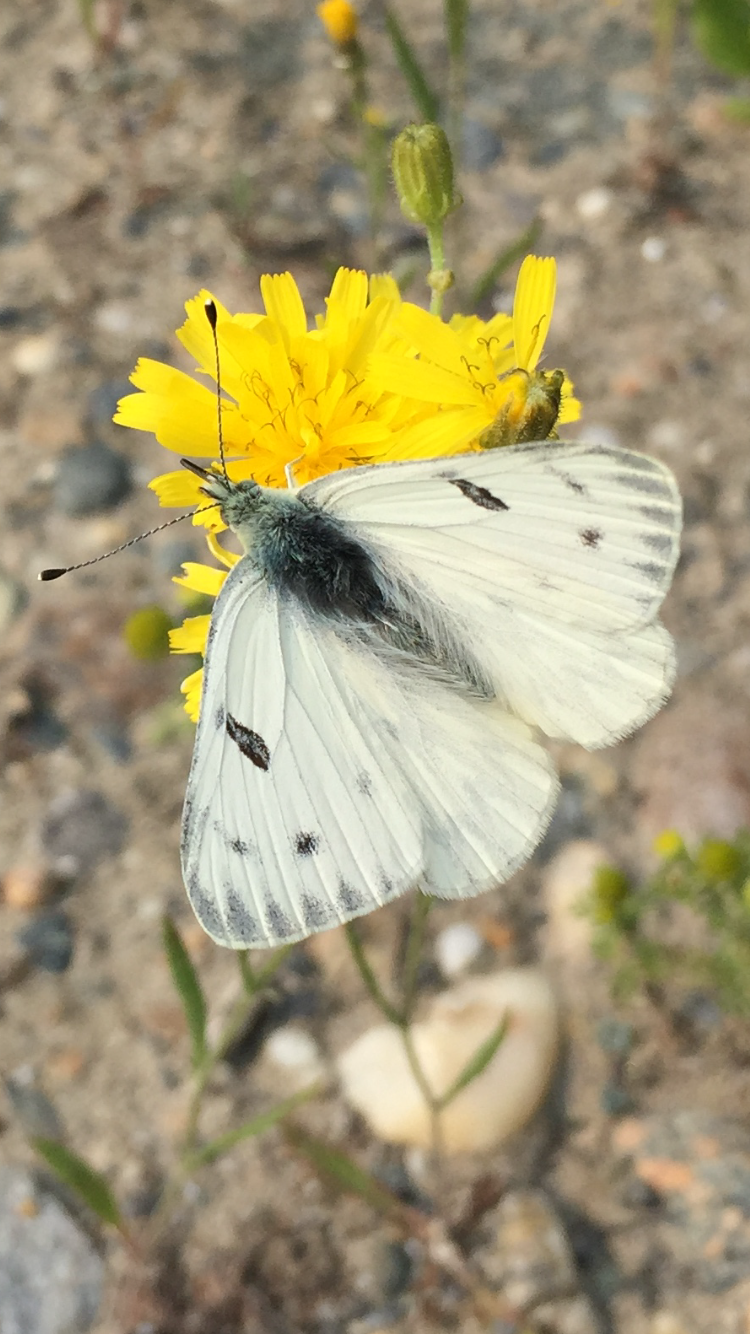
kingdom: Animalia
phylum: Arthropoda
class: Insecta
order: Lepidoptera
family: Pieridae
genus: Pontia
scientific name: Pontia occidentalis
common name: Western white
